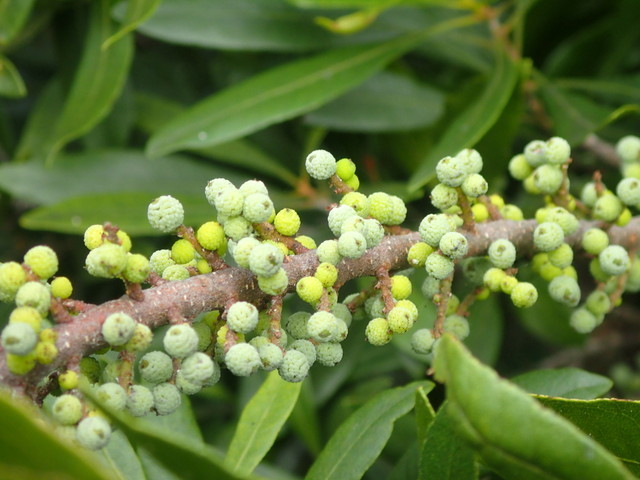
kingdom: Plantae
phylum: Tracheophyta
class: Magnoliopsida
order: Fagales
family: Myricaceae
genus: Morella
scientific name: Morella cerifera
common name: Wax myrtle
